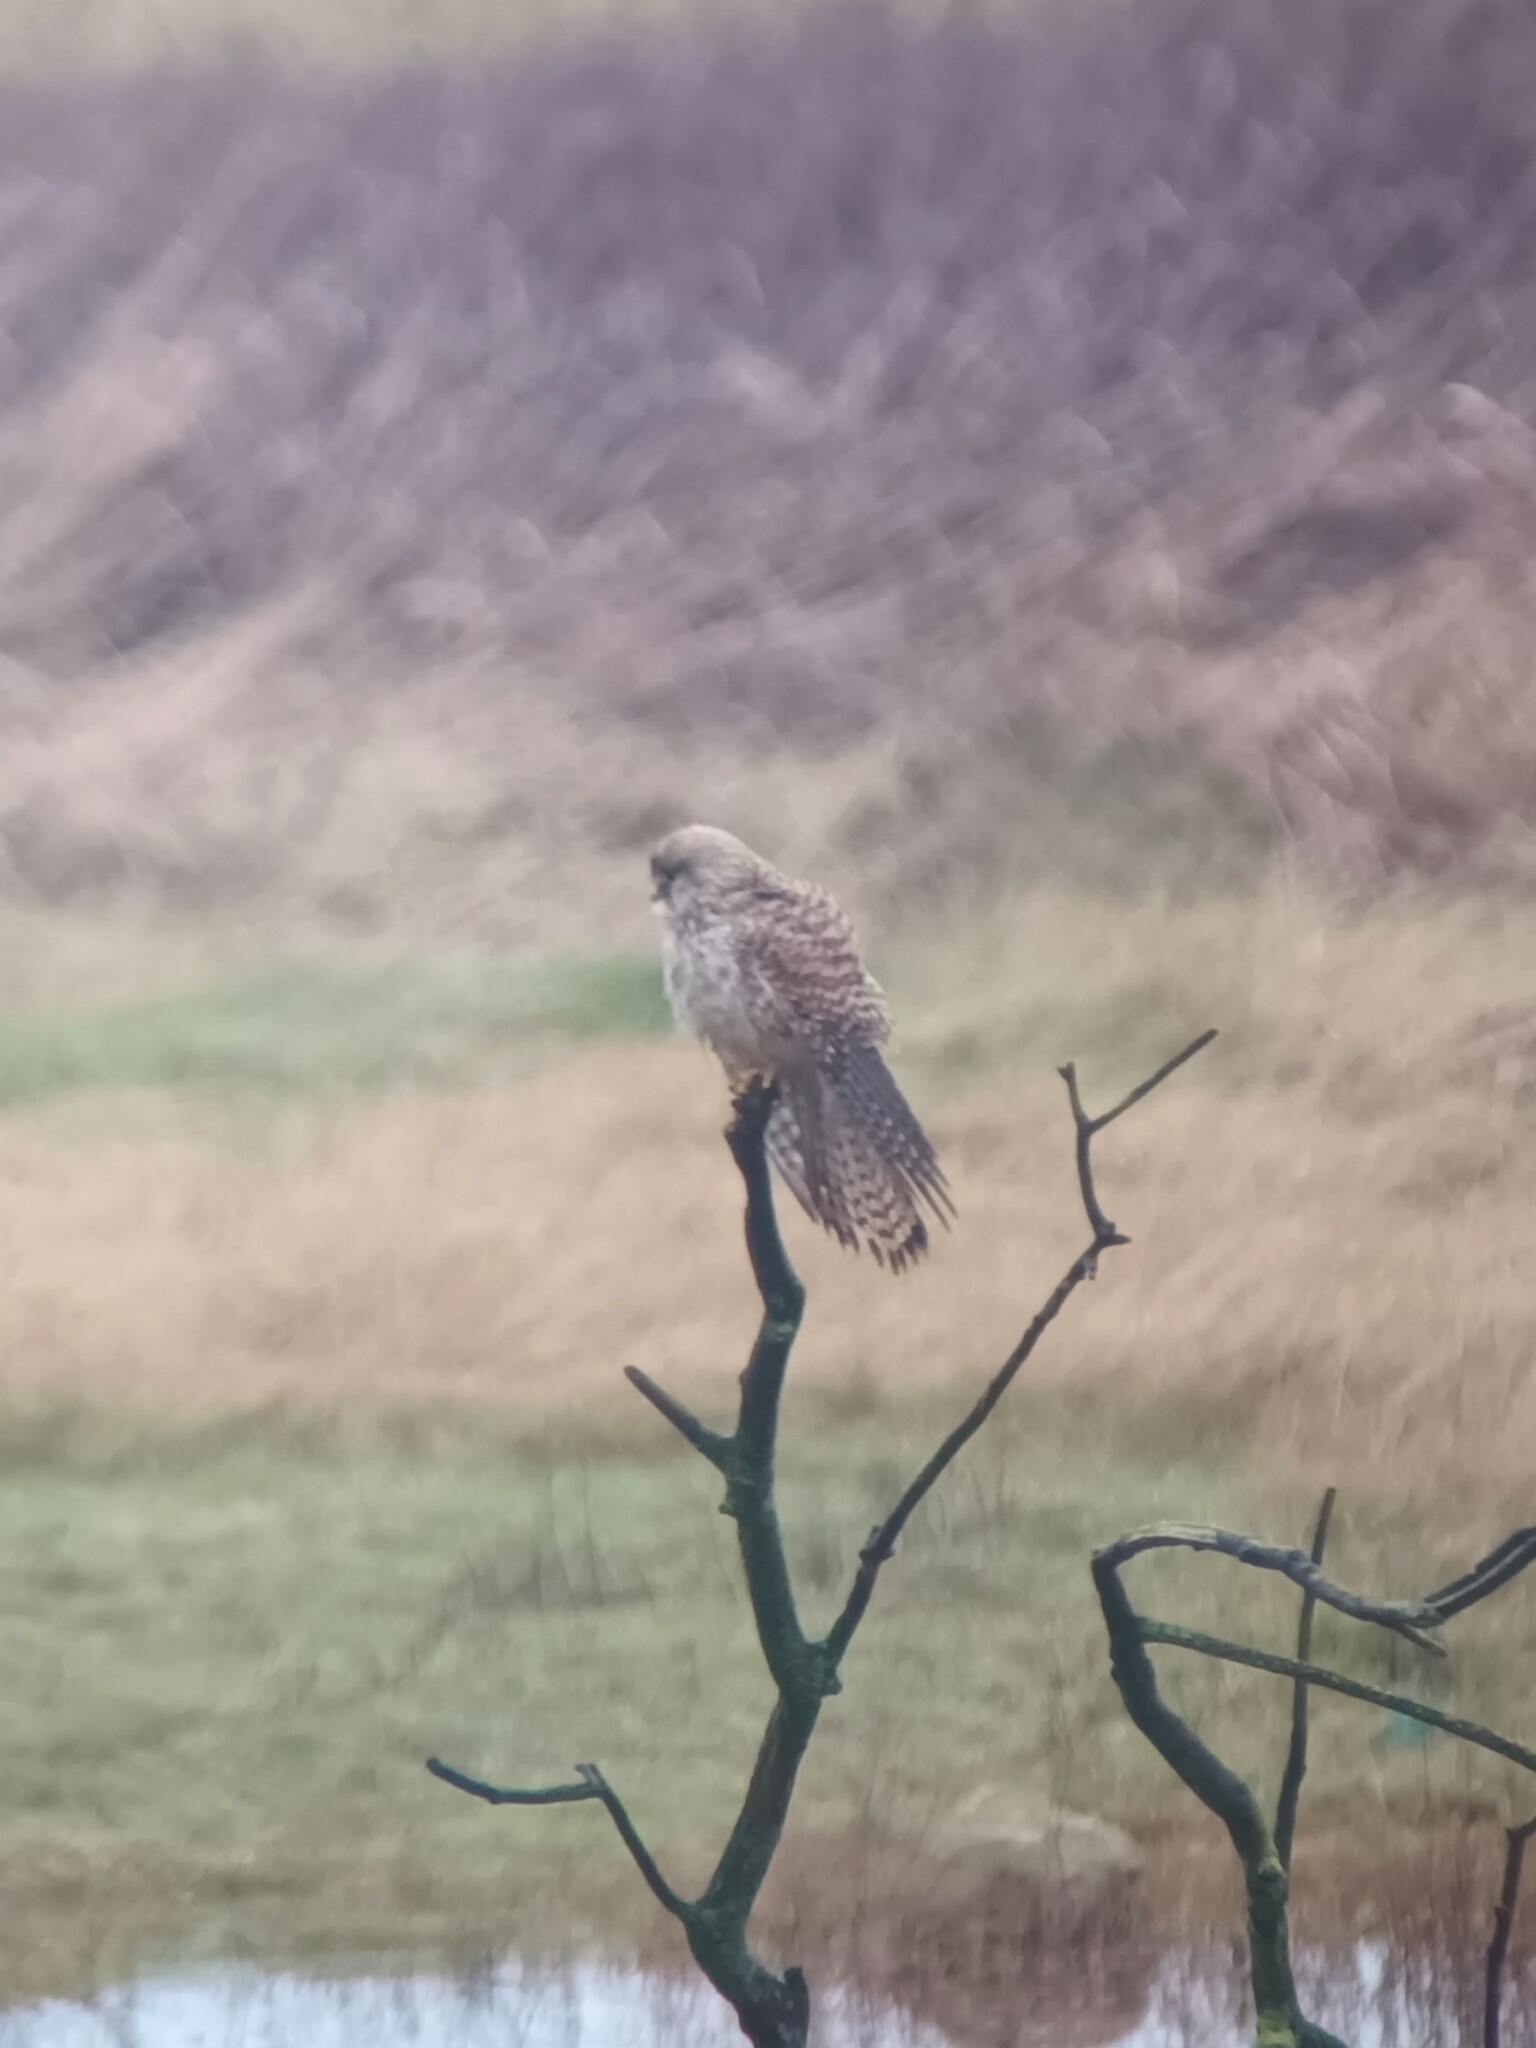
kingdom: Animalia
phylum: Chordata
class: Aves
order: Falconiformes
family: Falconidae
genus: Falco
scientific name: Falco tinnunculus
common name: Common kestrel
